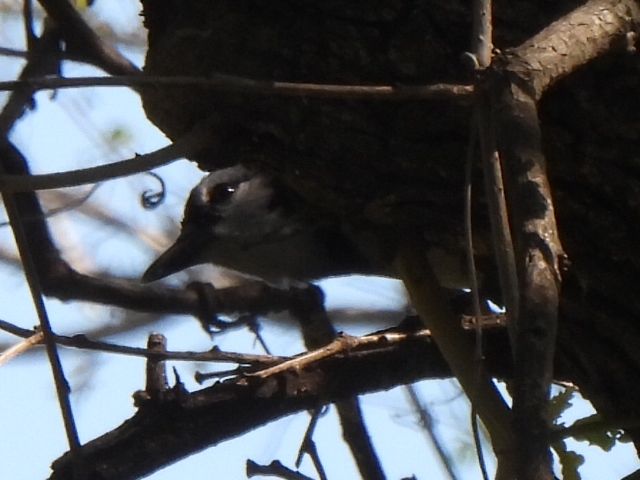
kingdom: Animalia
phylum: Chordata
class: Aves
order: Passeriformes
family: Corvidae
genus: Cyanocitta
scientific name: Cyanocitta cristata
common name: Blue jay
